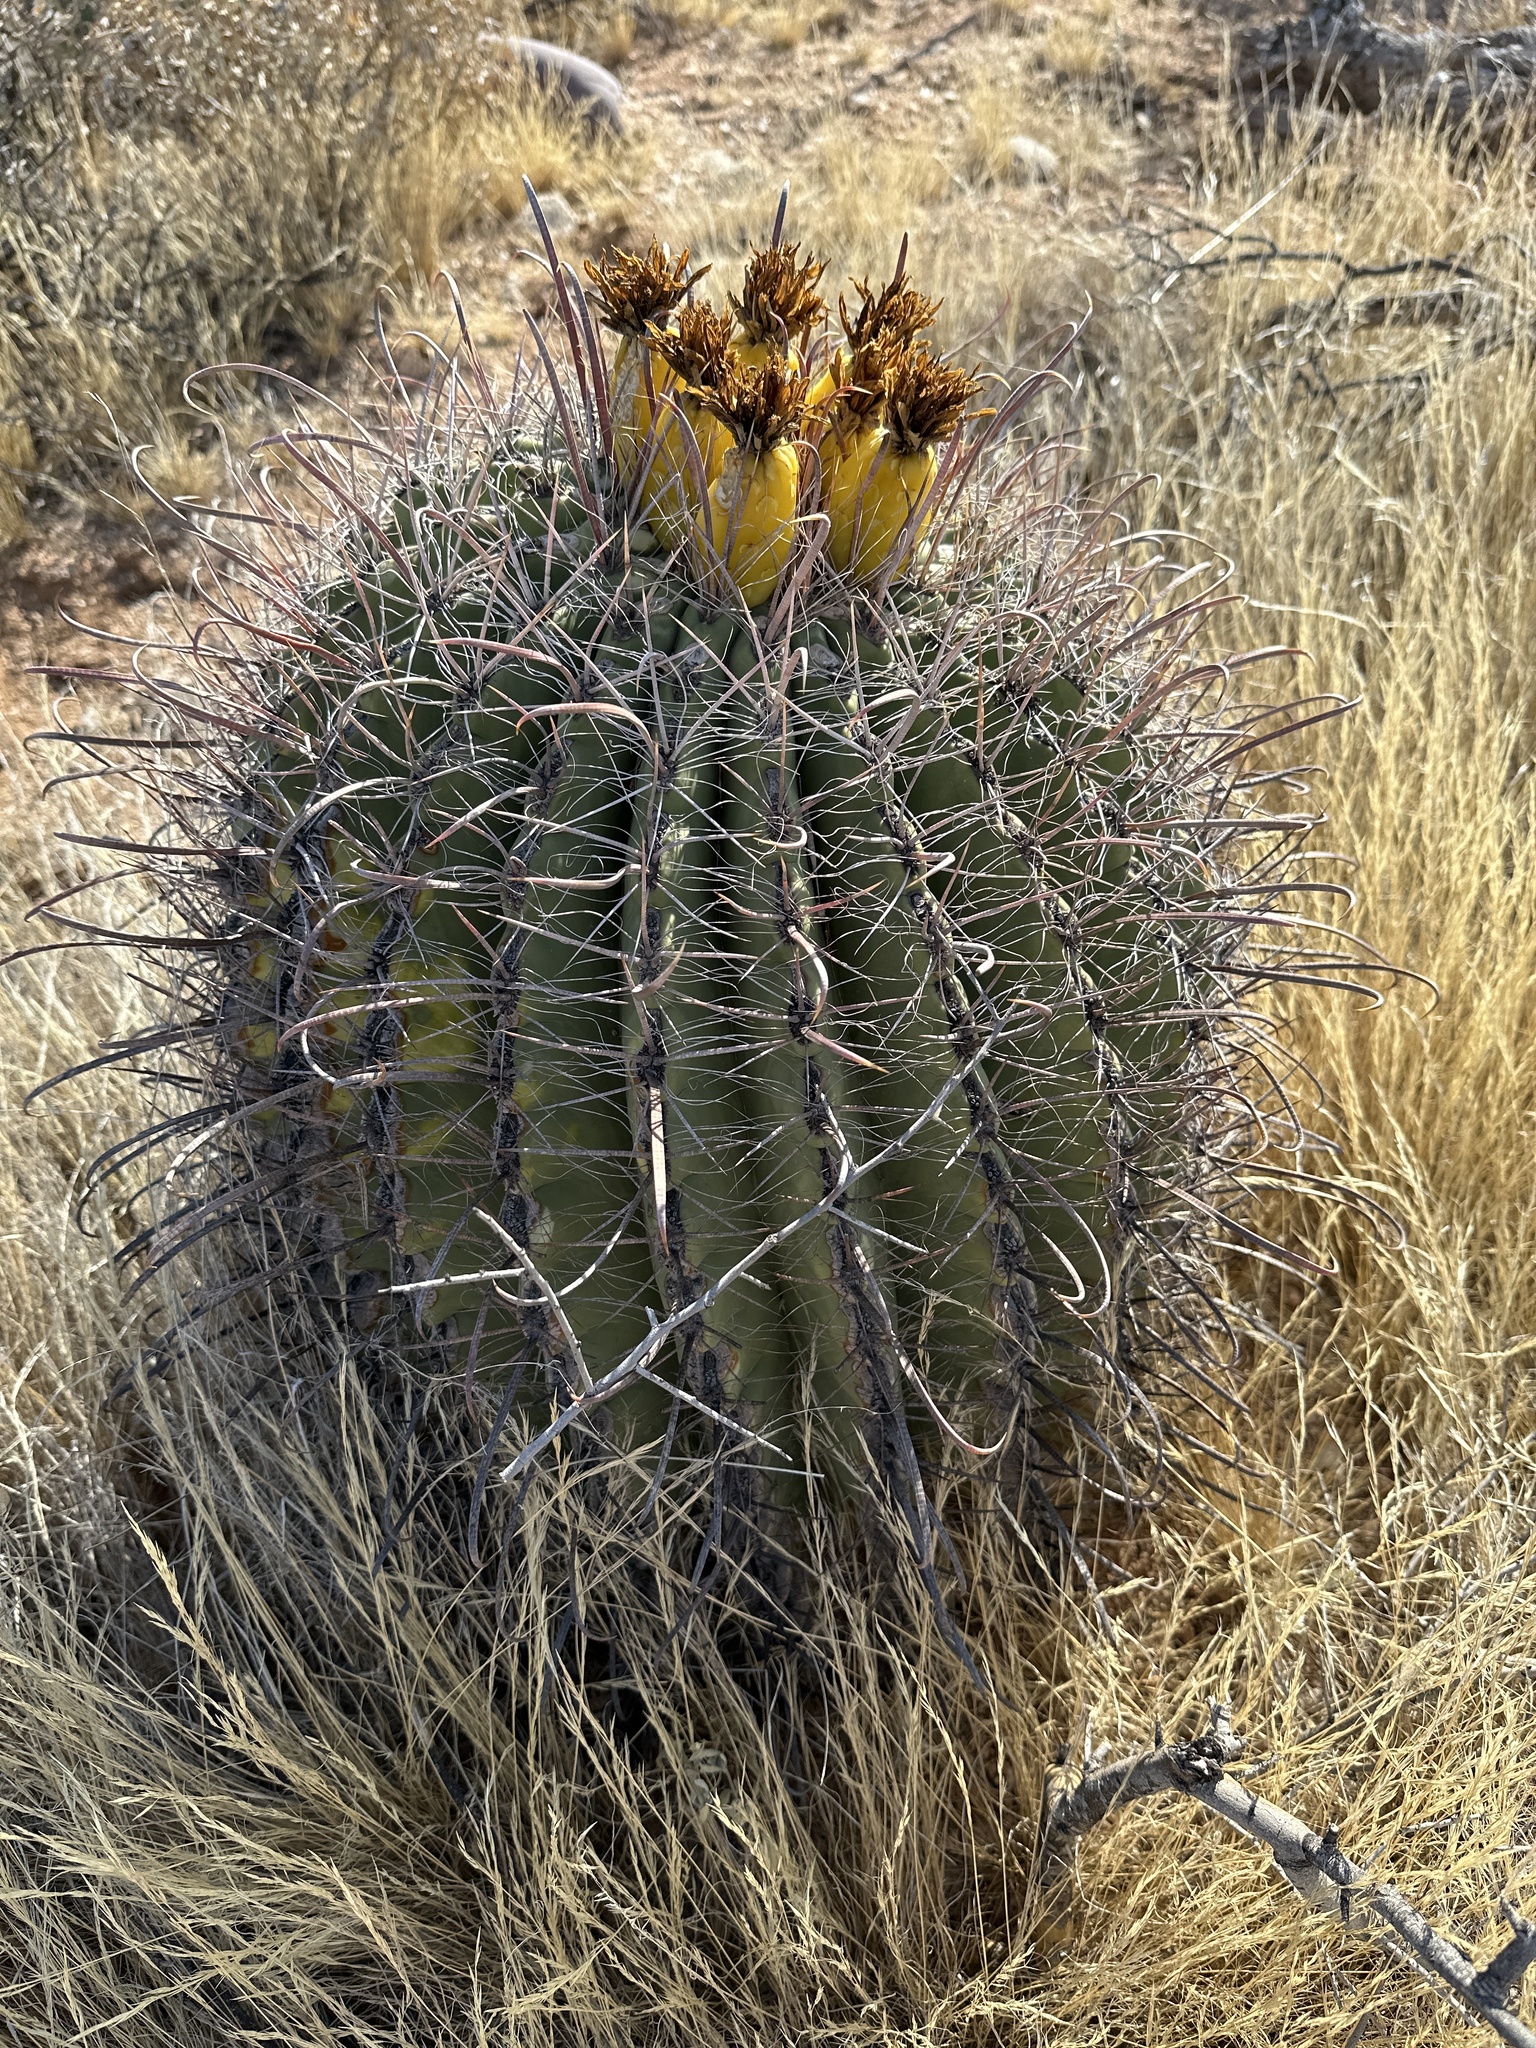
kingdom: Plantae
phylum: Tracheophyta
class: Magnoliopsida
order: Caryophyllales
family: Cactaceae
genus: Ferocactus
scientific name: Ferocactus wislizeni
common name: Candy barrel cactus
